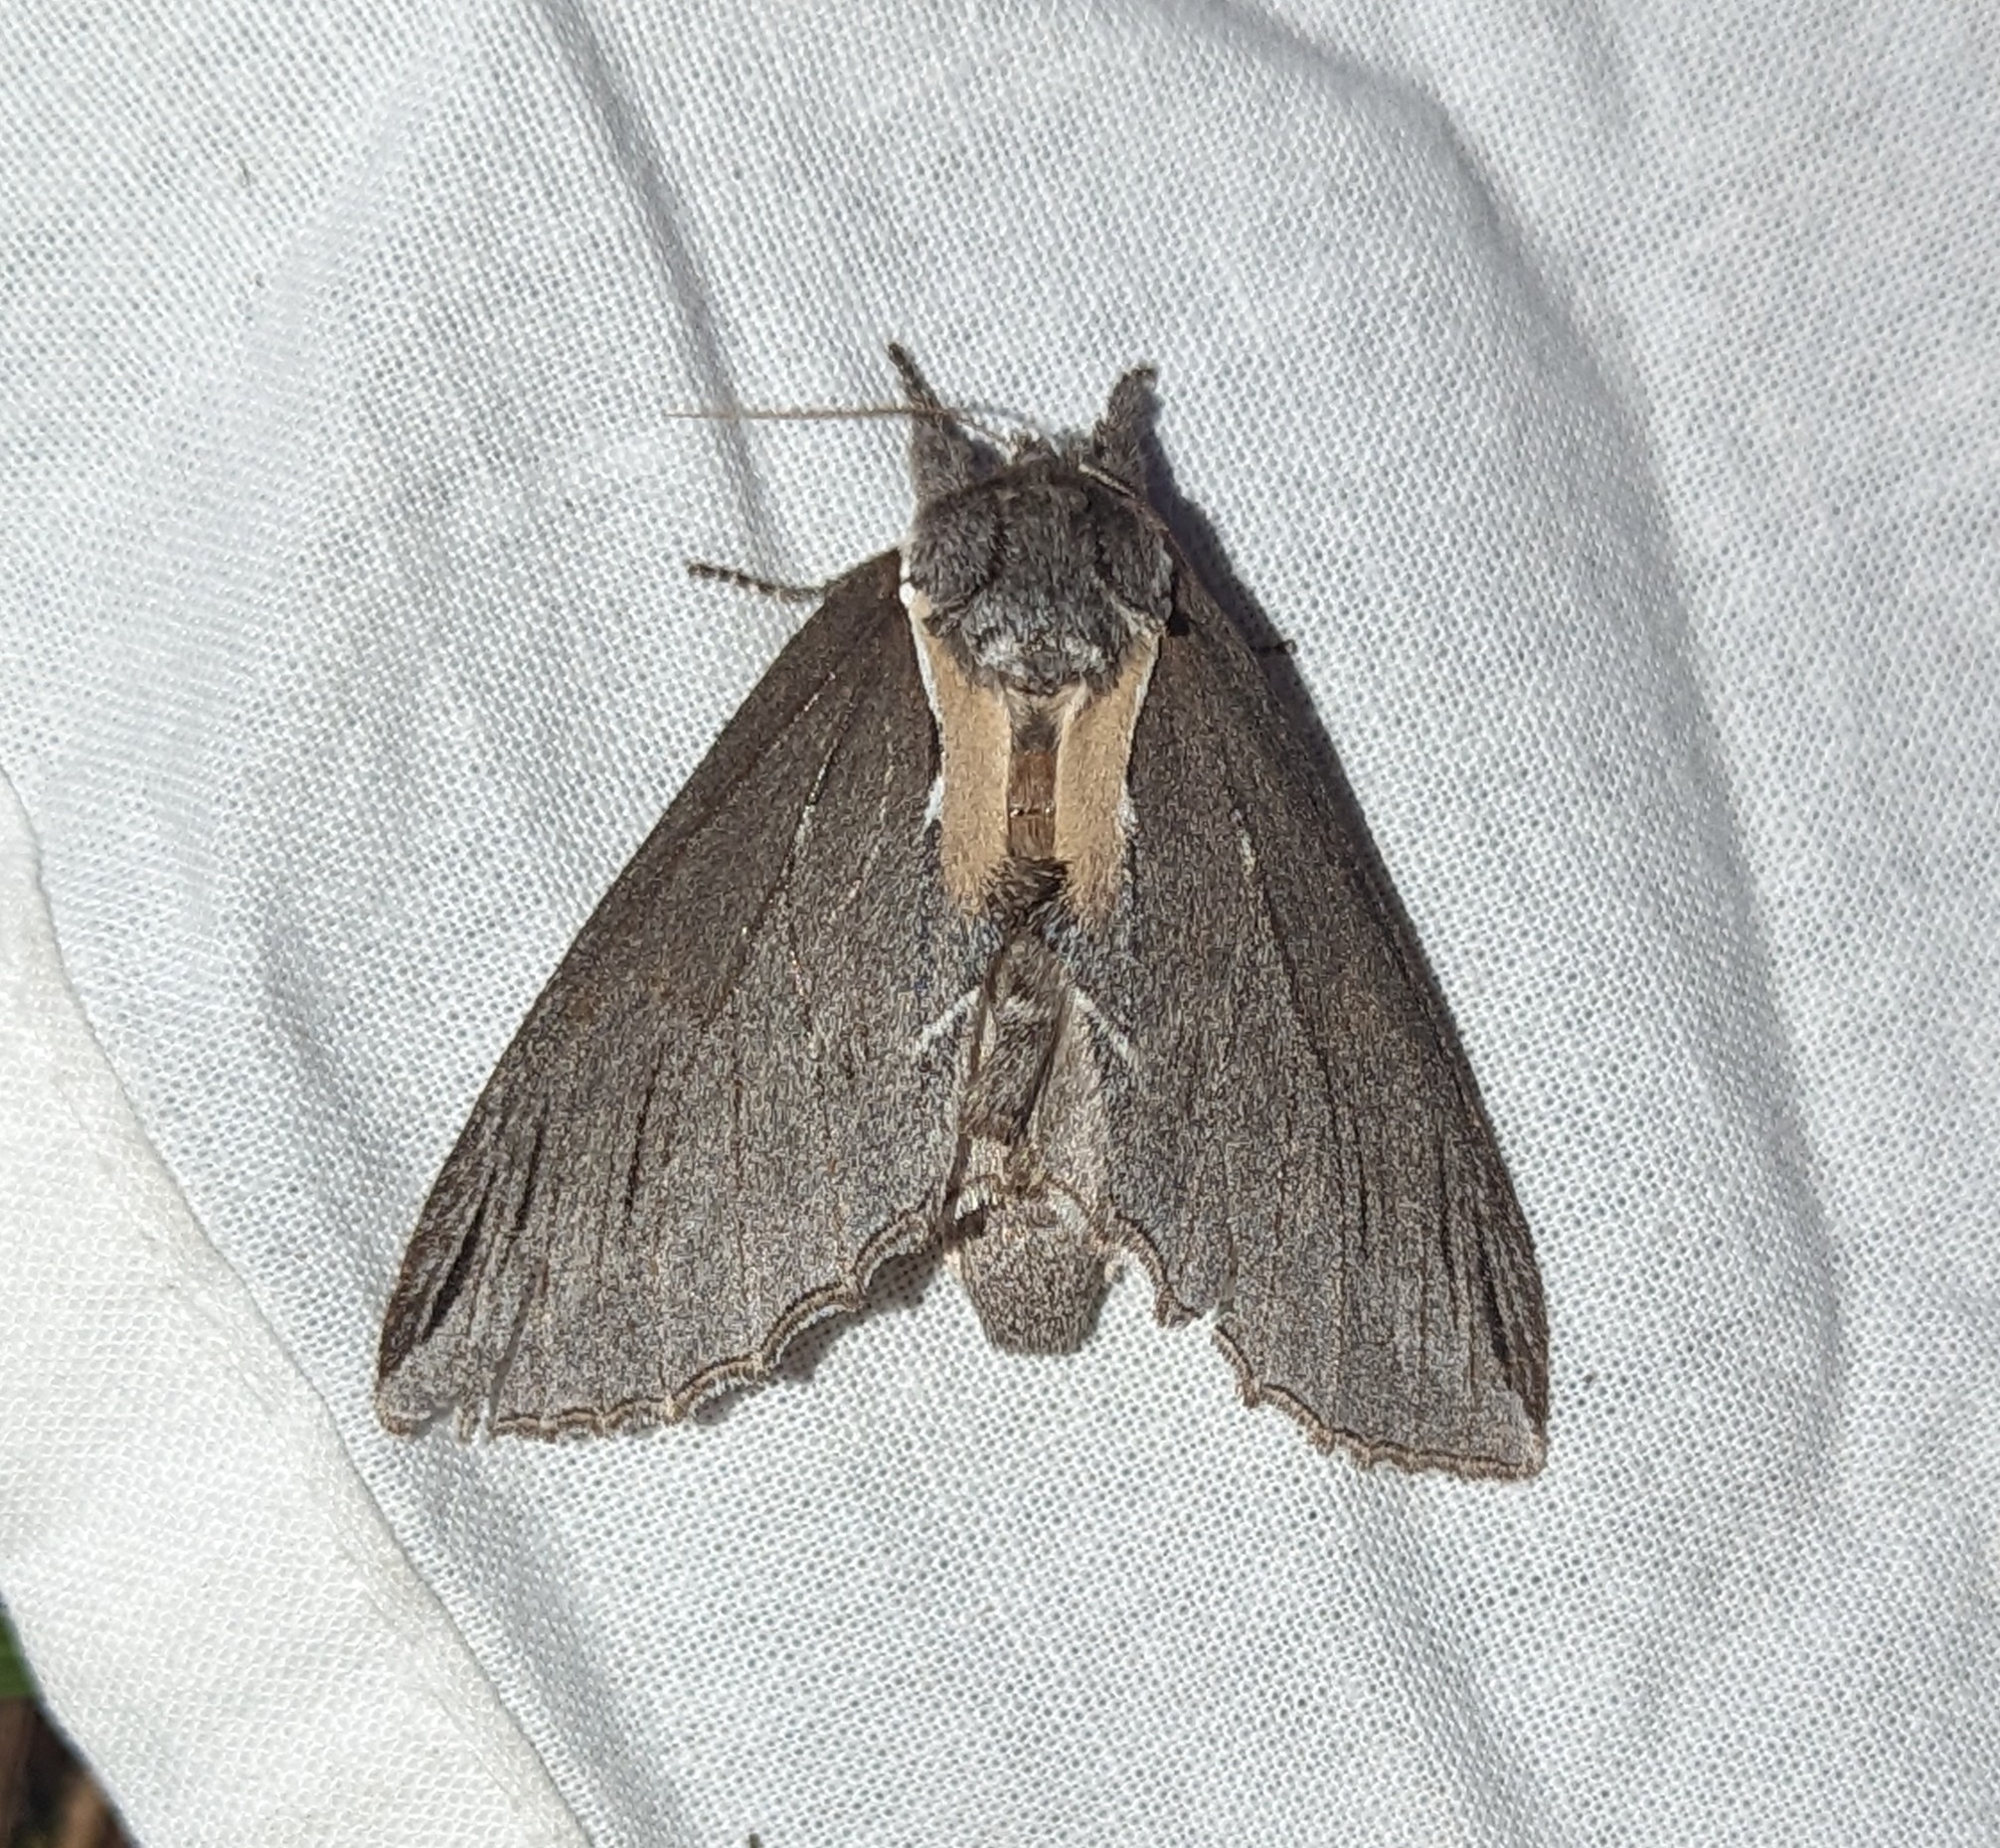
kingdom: Animalia
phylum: Arthropoda
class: Insecta
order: Lepidoptera
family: Notodontidae
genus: Pheosidea
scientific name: Pheosidea elegans
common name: Elegant prominent
